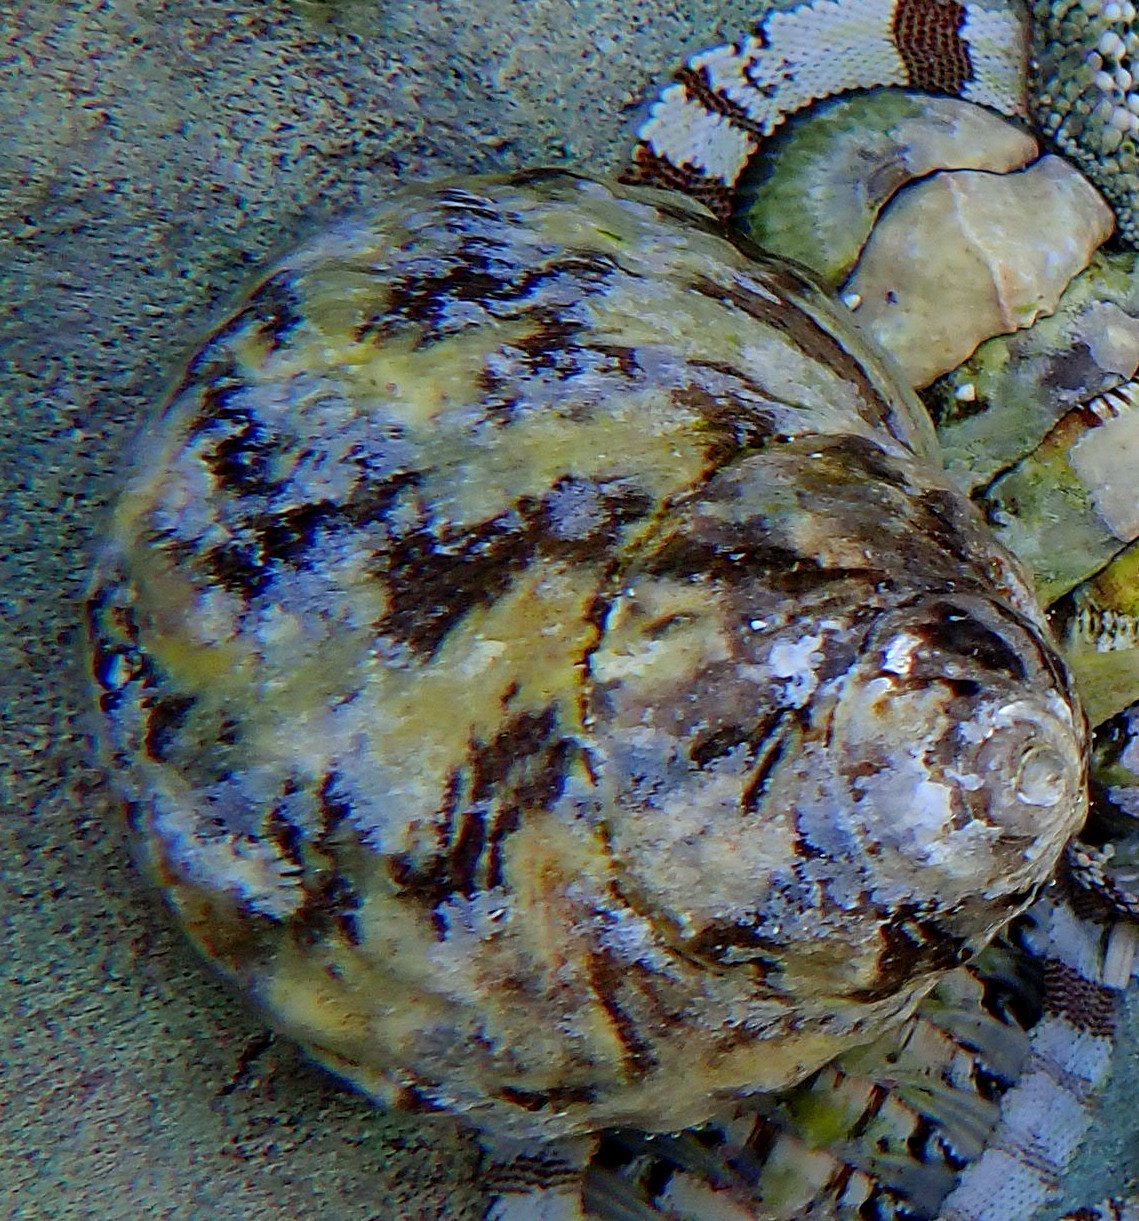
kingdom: Animalia
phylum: Mollusca
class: Gastropoda
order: Trochida
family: Tegulidae
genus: Cittarium
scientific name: Cittarium pica
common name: West indian topshell
